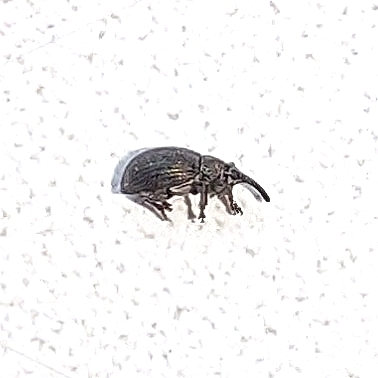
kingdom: Animalia
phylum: Arthropoda
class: Insecta
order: Coleoptera
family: Brentidae
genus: Betulapion
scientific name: Betulapion simile
